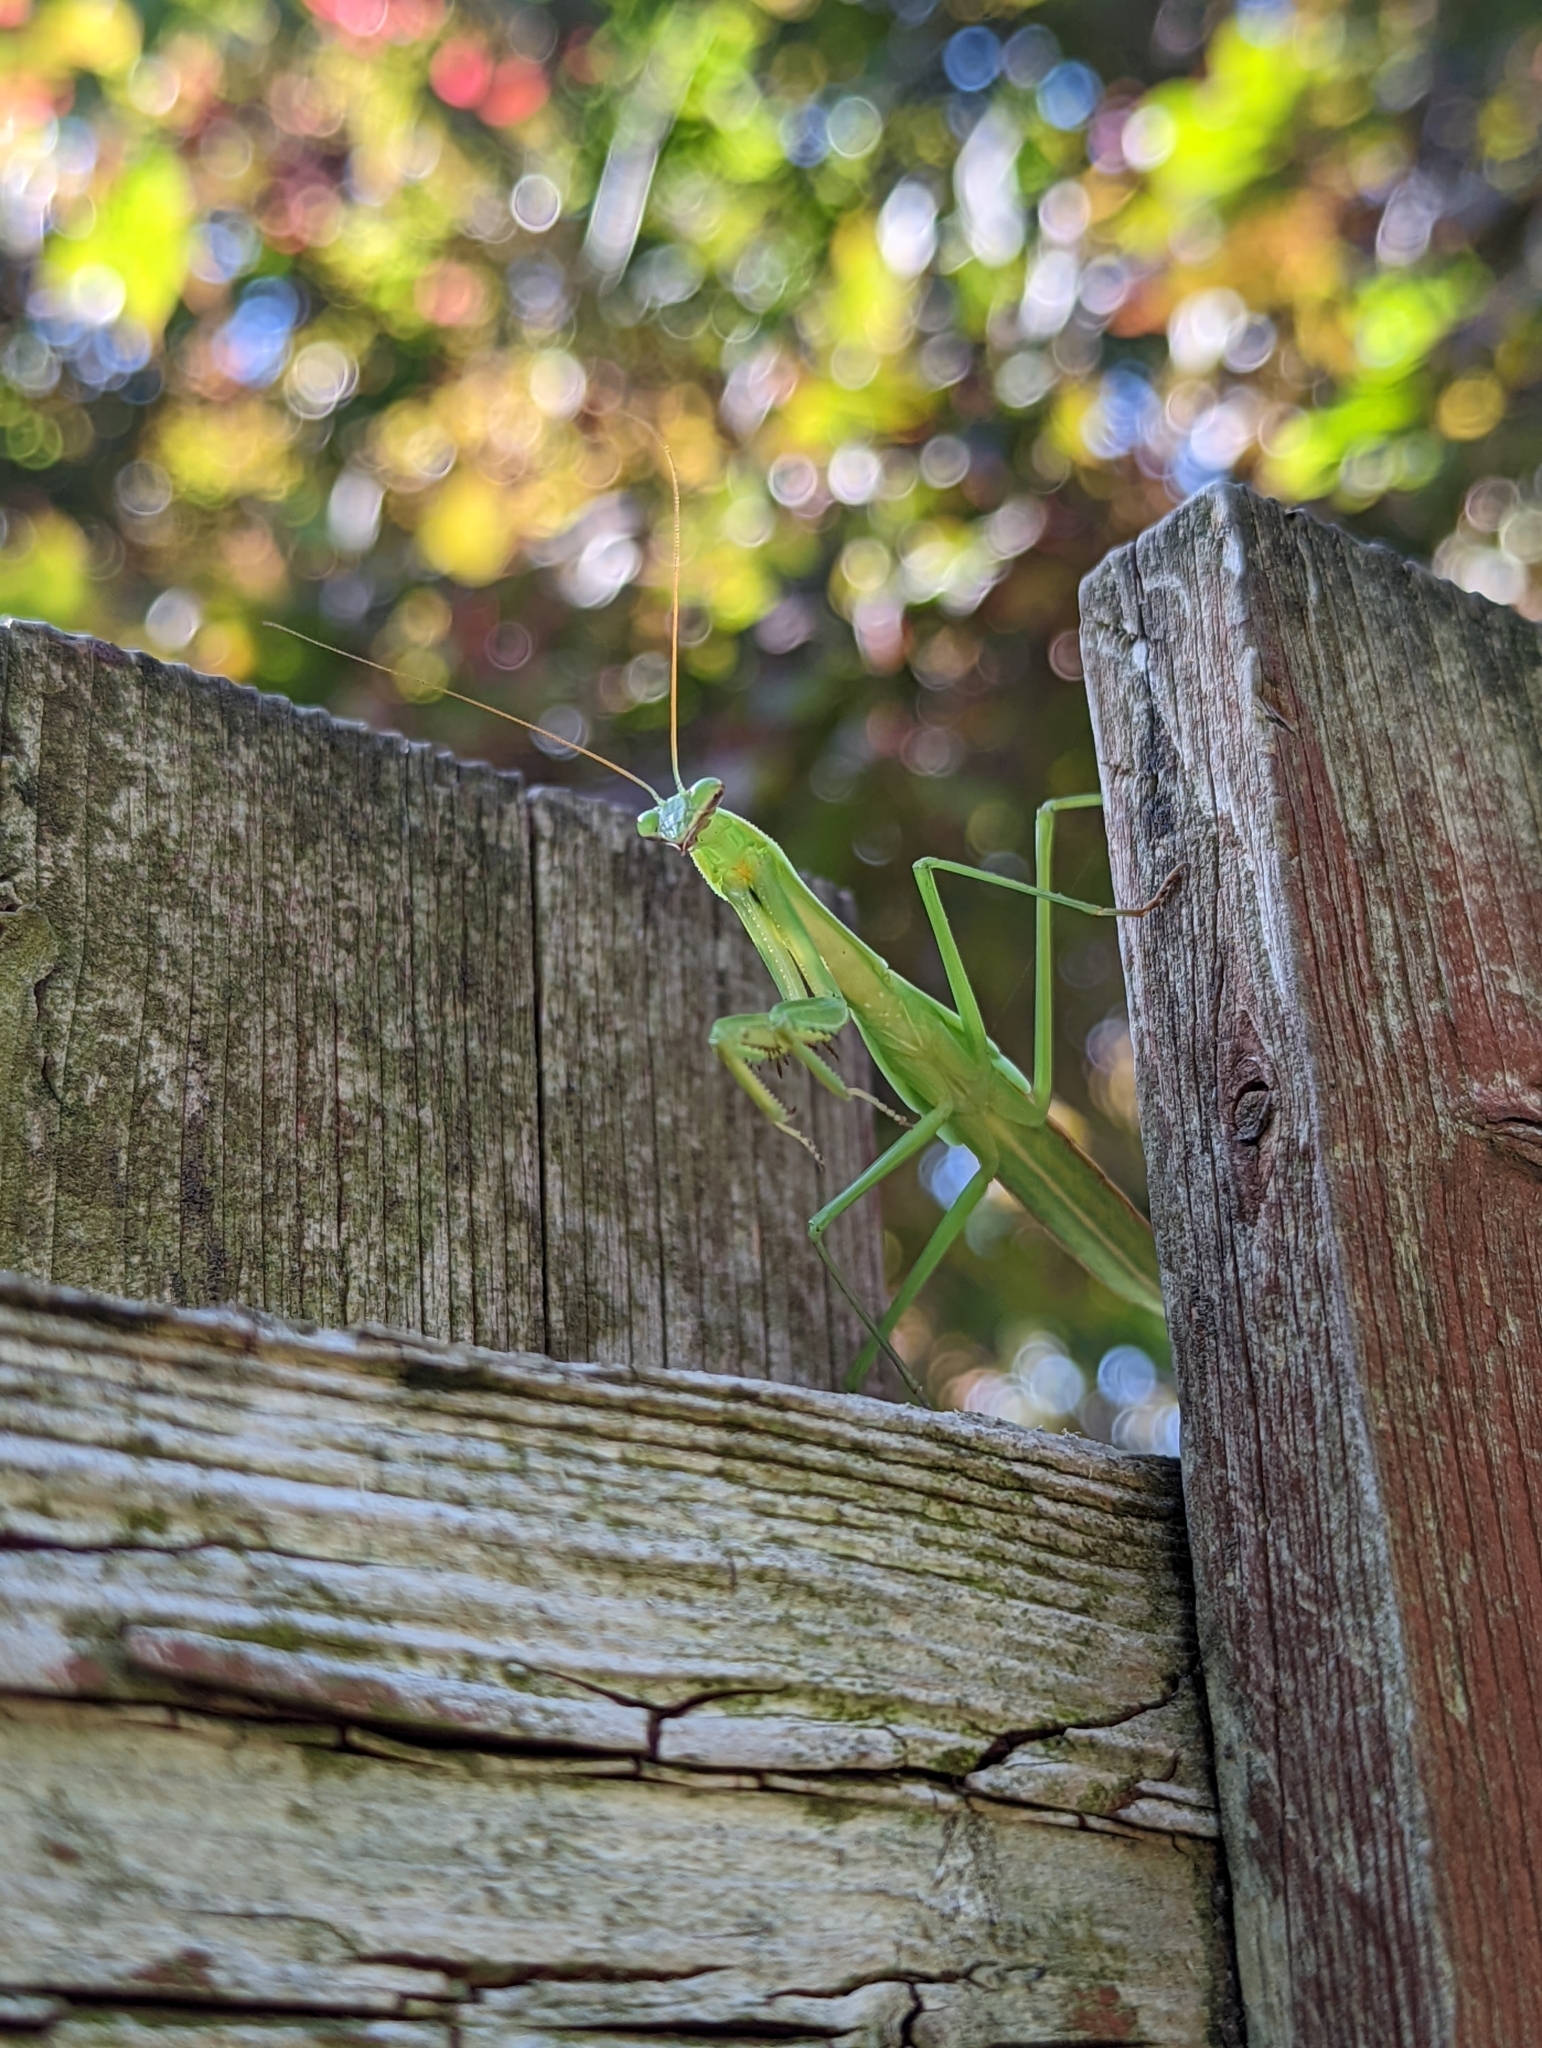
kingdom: Animalia
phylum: Arthropoda
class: Insecta
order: Mantodea
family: Mantidae
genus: Mantis
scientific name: Mantis religiosa
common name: Praying mantis
